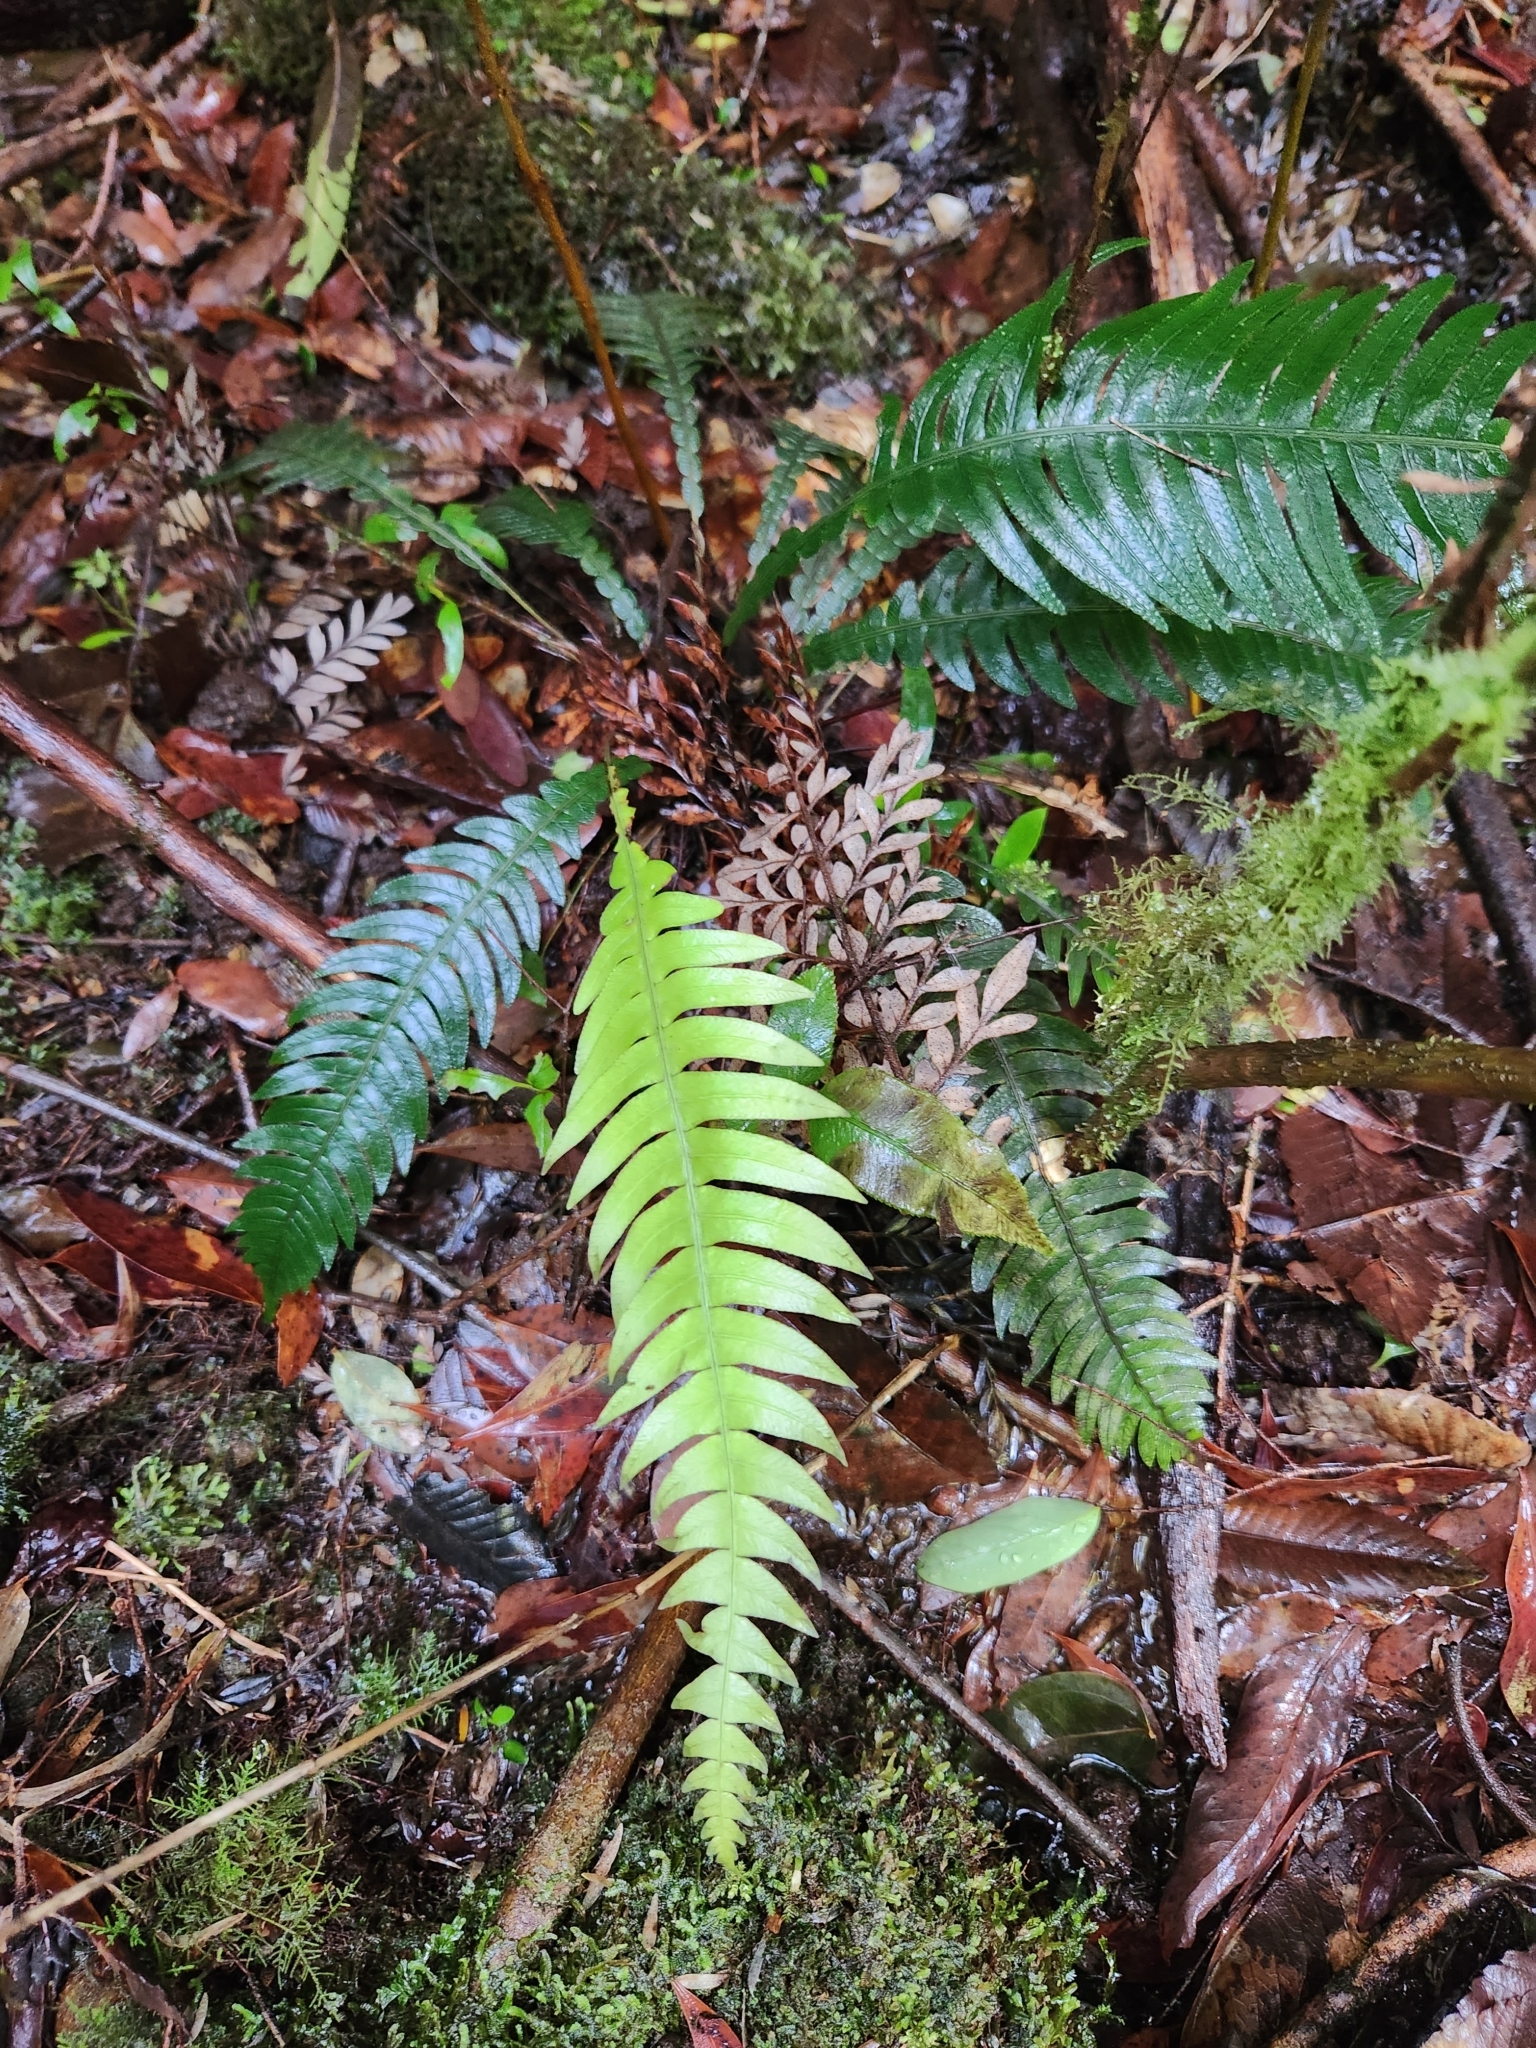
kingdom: Plantae
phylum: Tracheophyta
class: Polypodiopsida
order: Polypodiales
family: Blechnaceae
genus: Austroblechnum
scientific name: Austroblechnum lechleri
